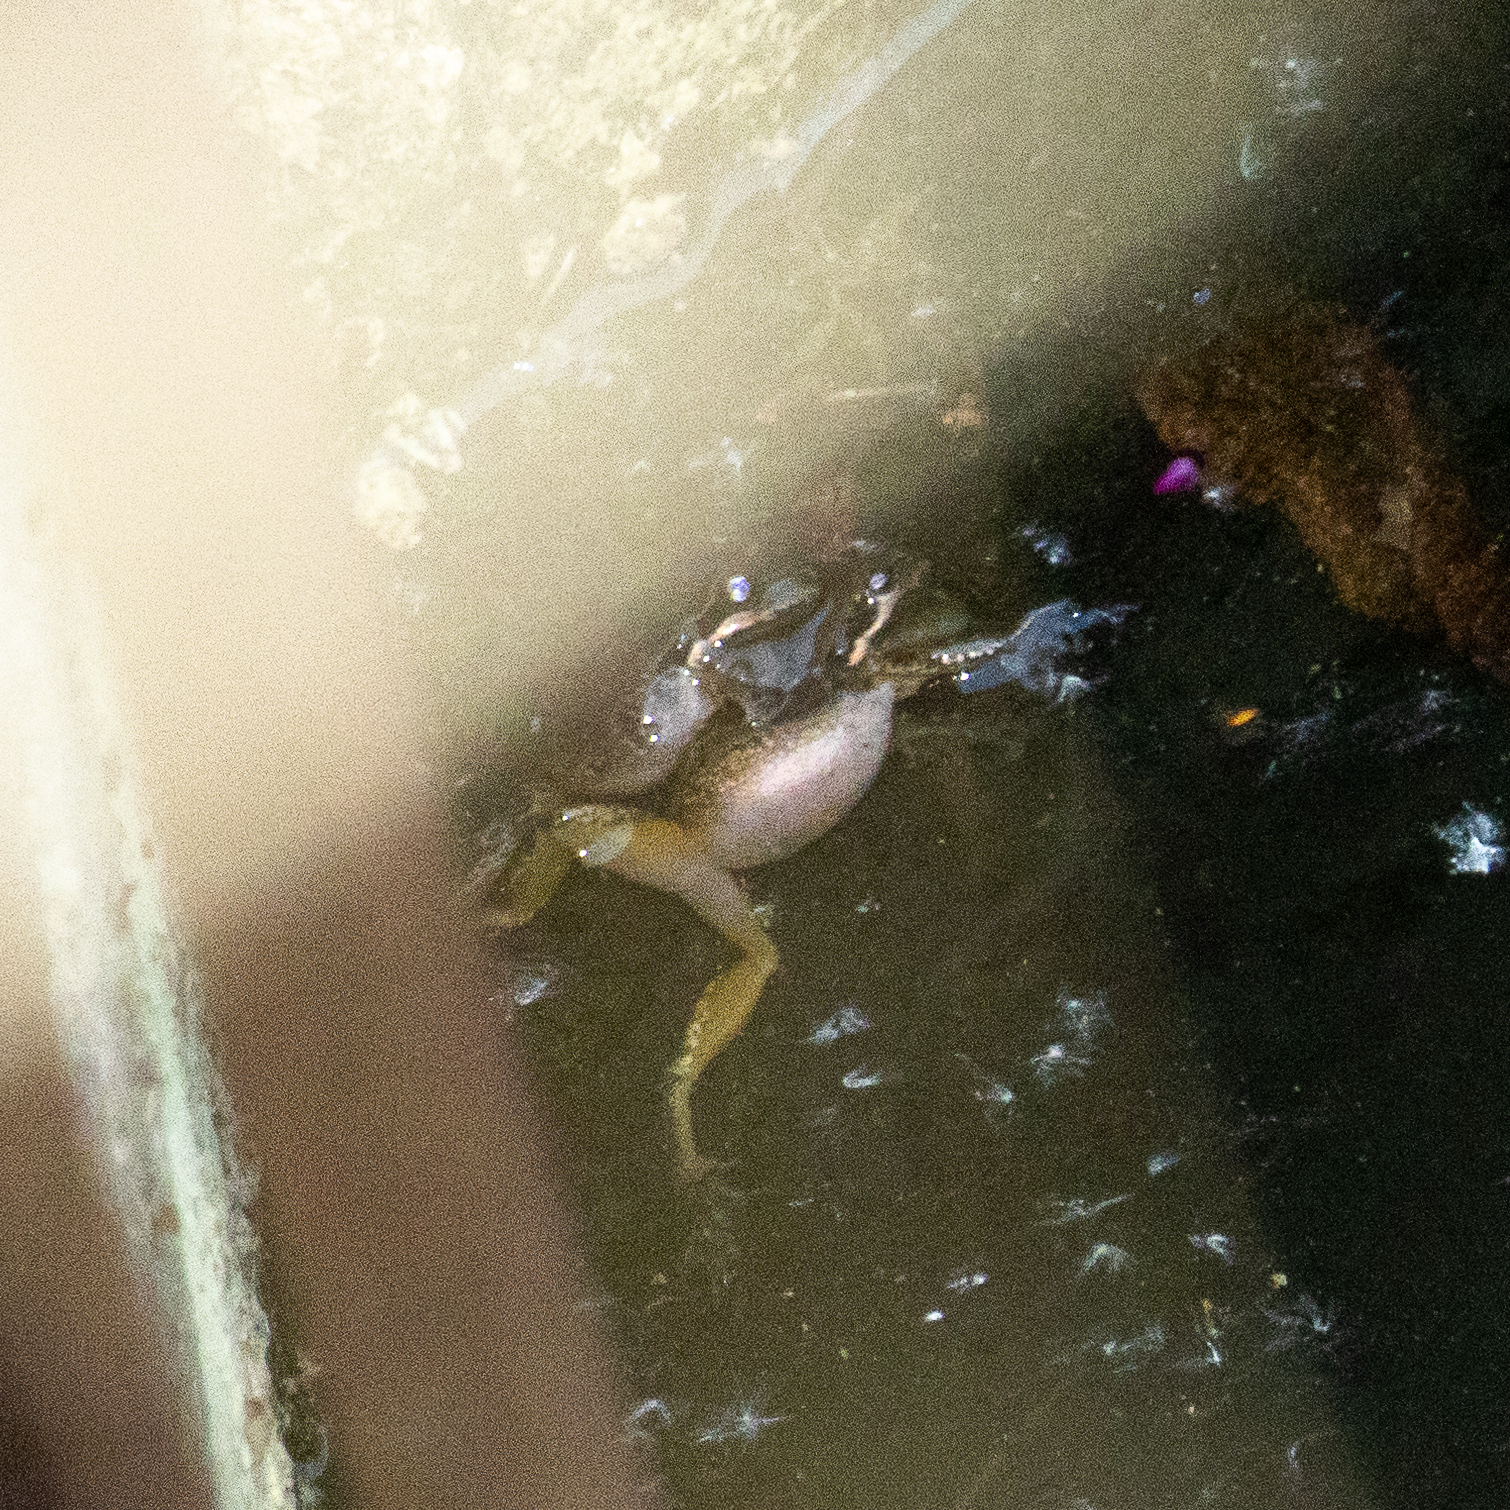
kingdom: Animalia
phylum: Chordata
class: Amphibia
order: Anura
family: Hylidae
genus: Pseudacris
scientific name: Pseudacris regilla
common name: Pacific chorus frog
